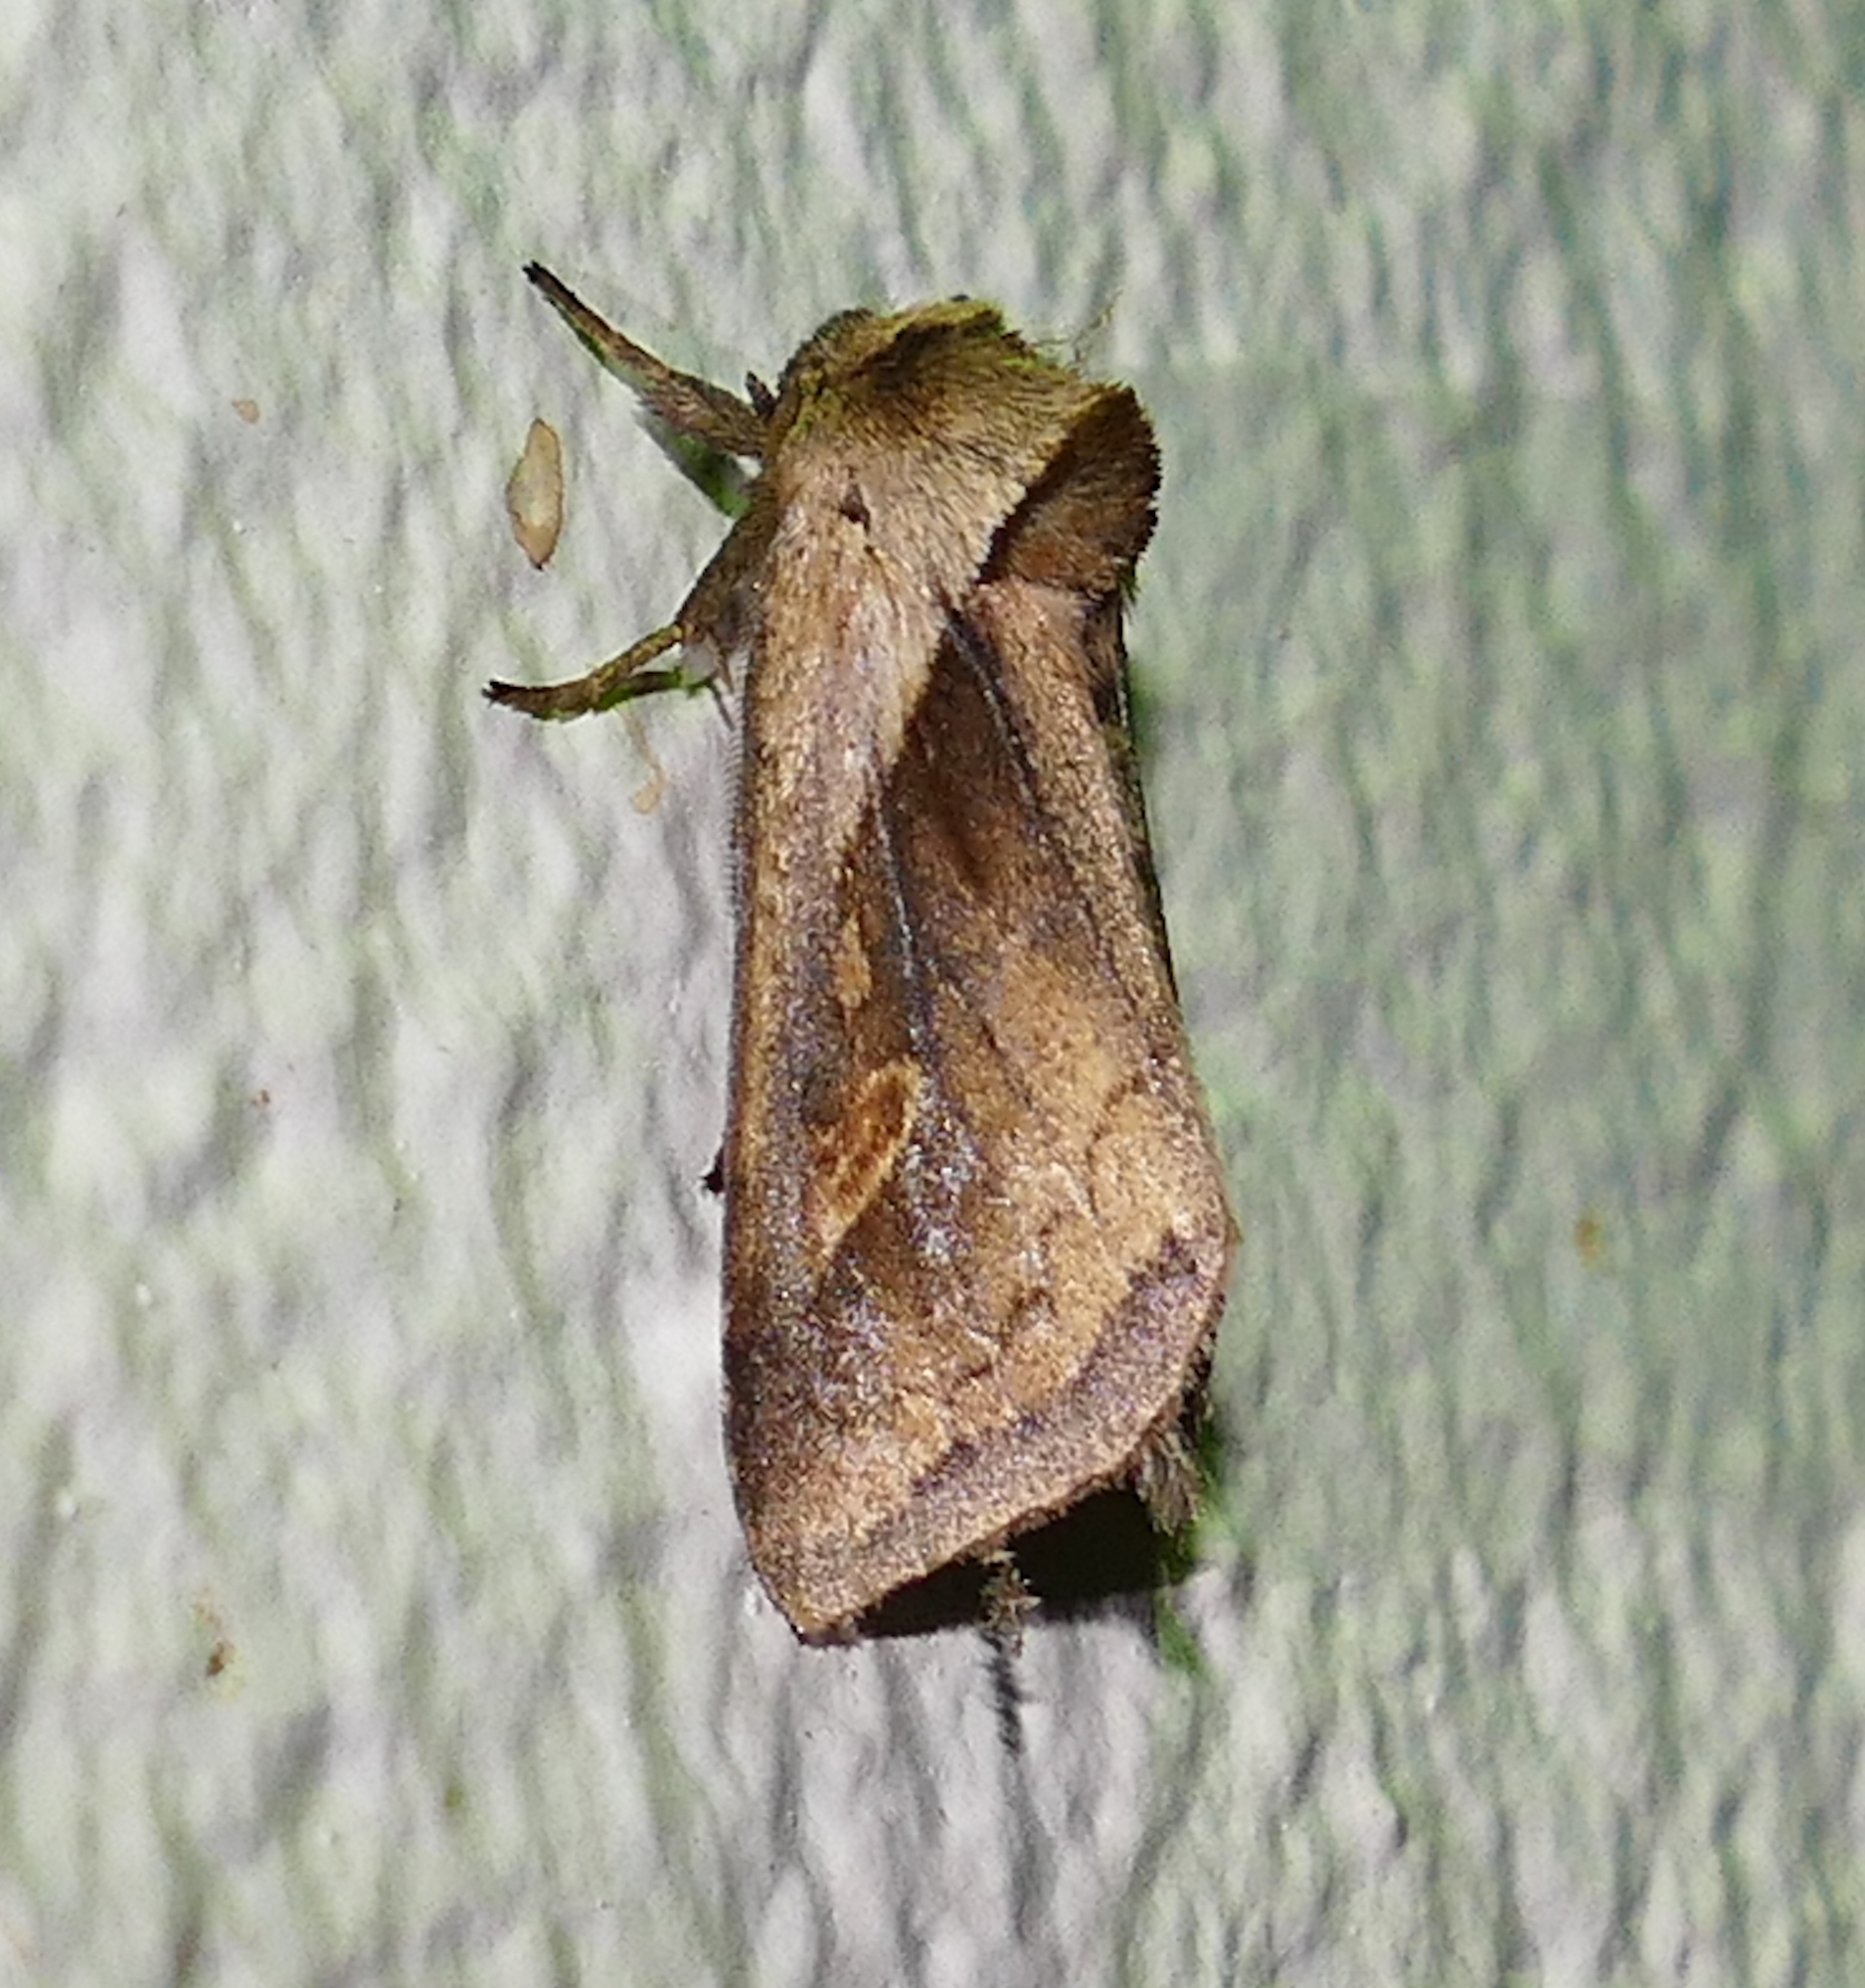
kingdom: Animalia
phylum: Arthropoda
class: Insecta
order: Lepidoptera
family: Noctuidae
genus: Bellura
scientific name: Bellura obliqua
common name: Cattail borer moth
